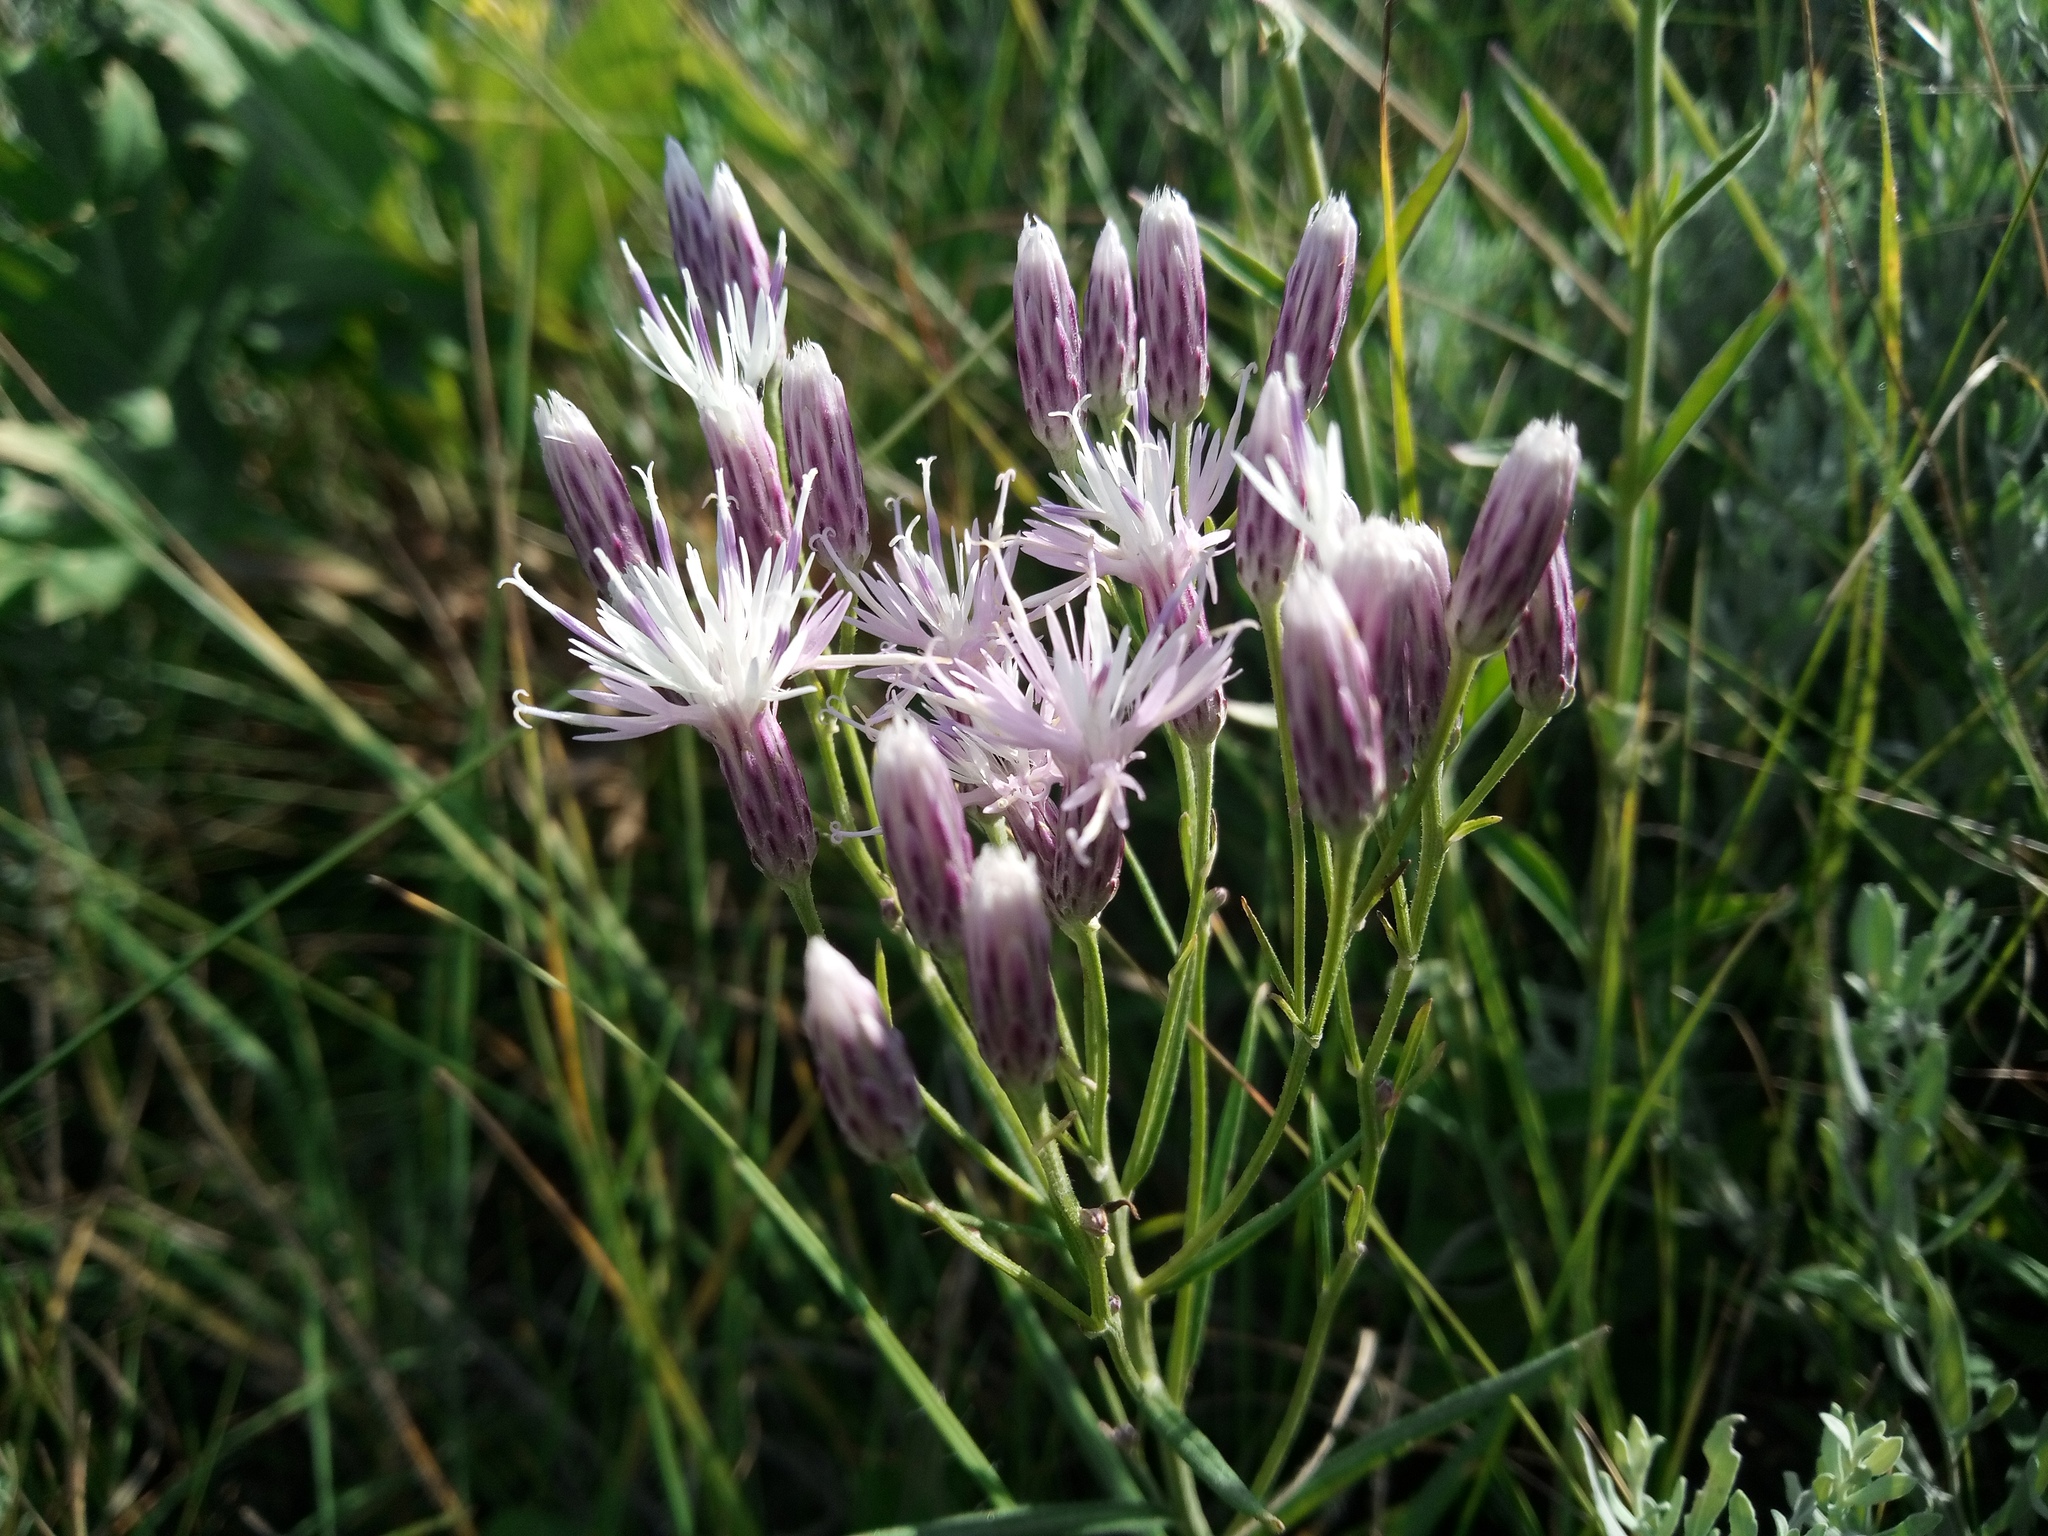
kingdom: Plantae
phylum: Tracheophyta
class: Magnoliopsida
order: Asterales
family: Asteraceae
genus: Jurinea
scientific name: Jurinea multiflora
